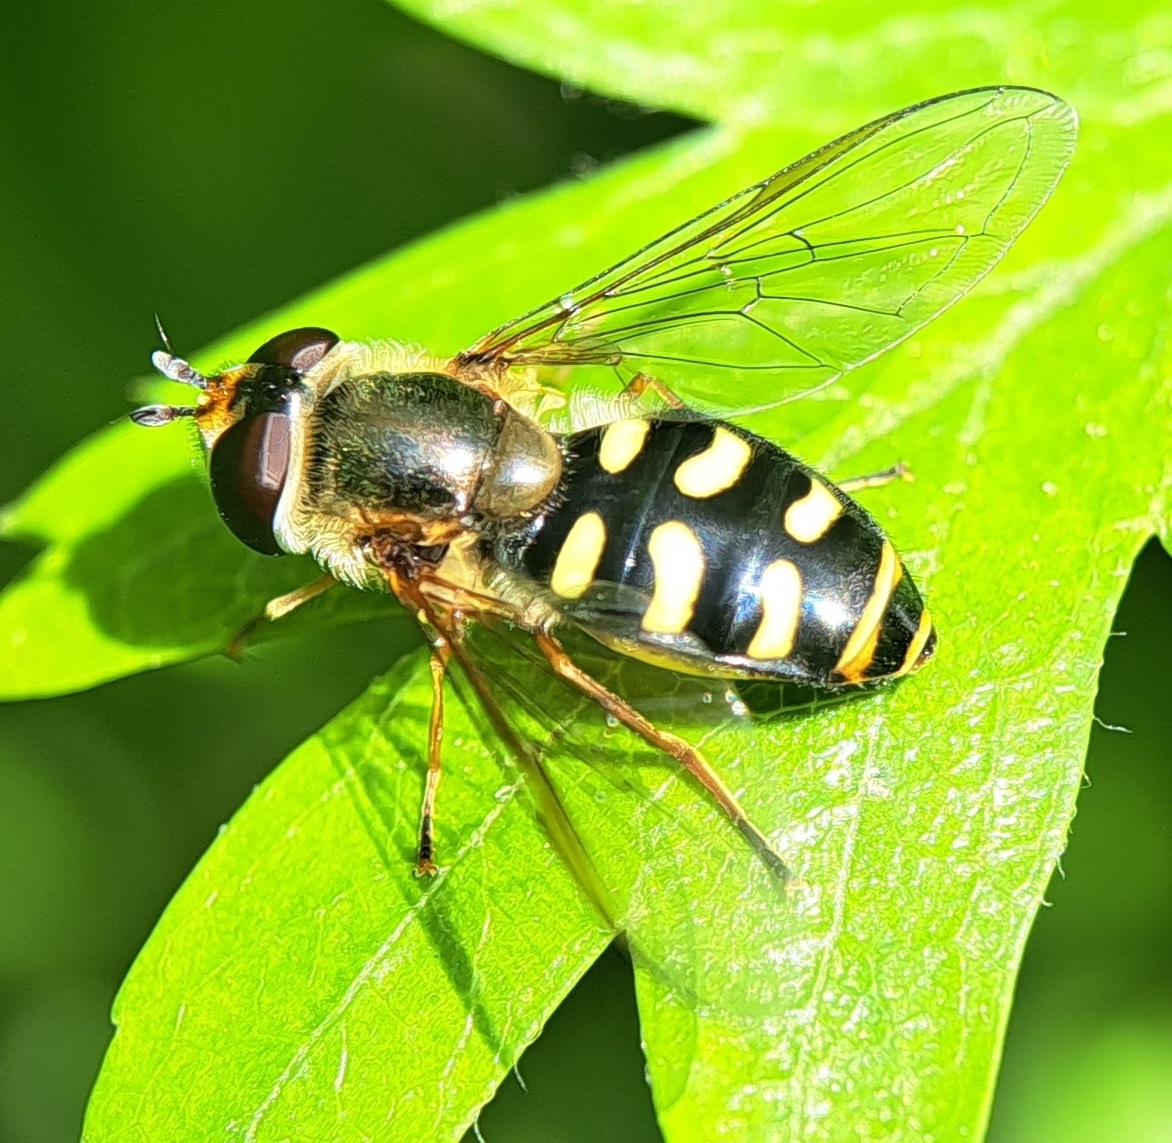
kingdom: Animalia
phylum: Arthropoda
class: Insecta
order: Diptera
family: Syrphidae
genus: Eupeodes
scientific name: Eupeodes luniger
